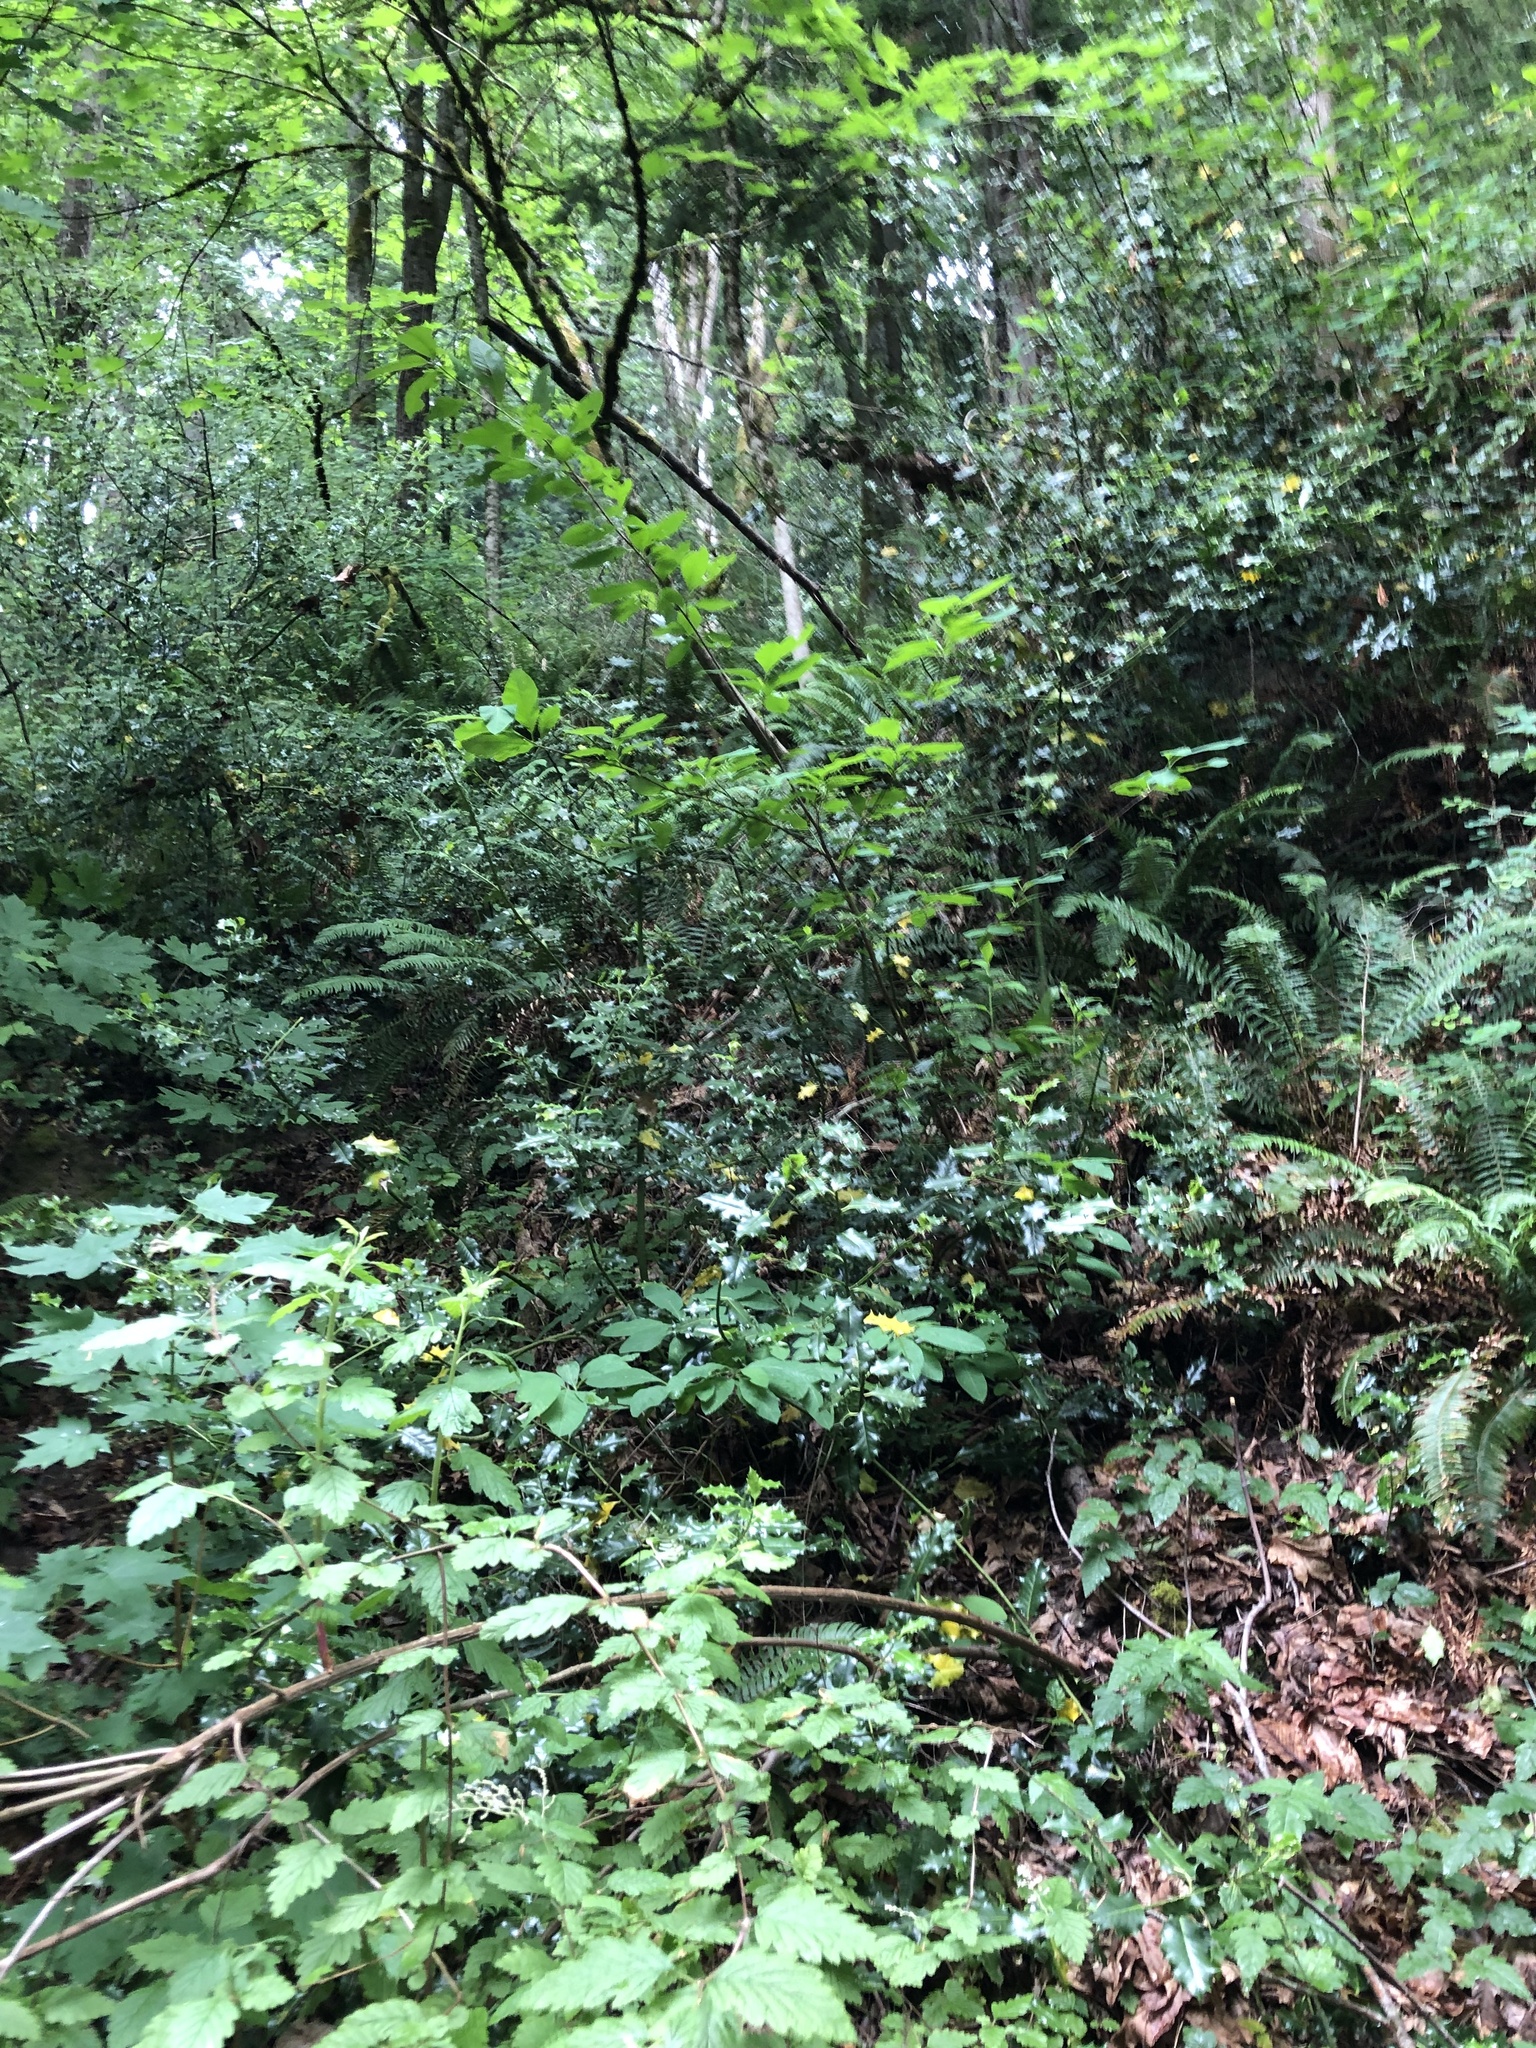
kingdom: Plantae
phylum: Tracheophyta
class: Magnoliopsida
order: Aquifoliales
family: Aquifoliaceae
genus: Ilex
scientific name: Ilex aquifolium
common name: English holly
